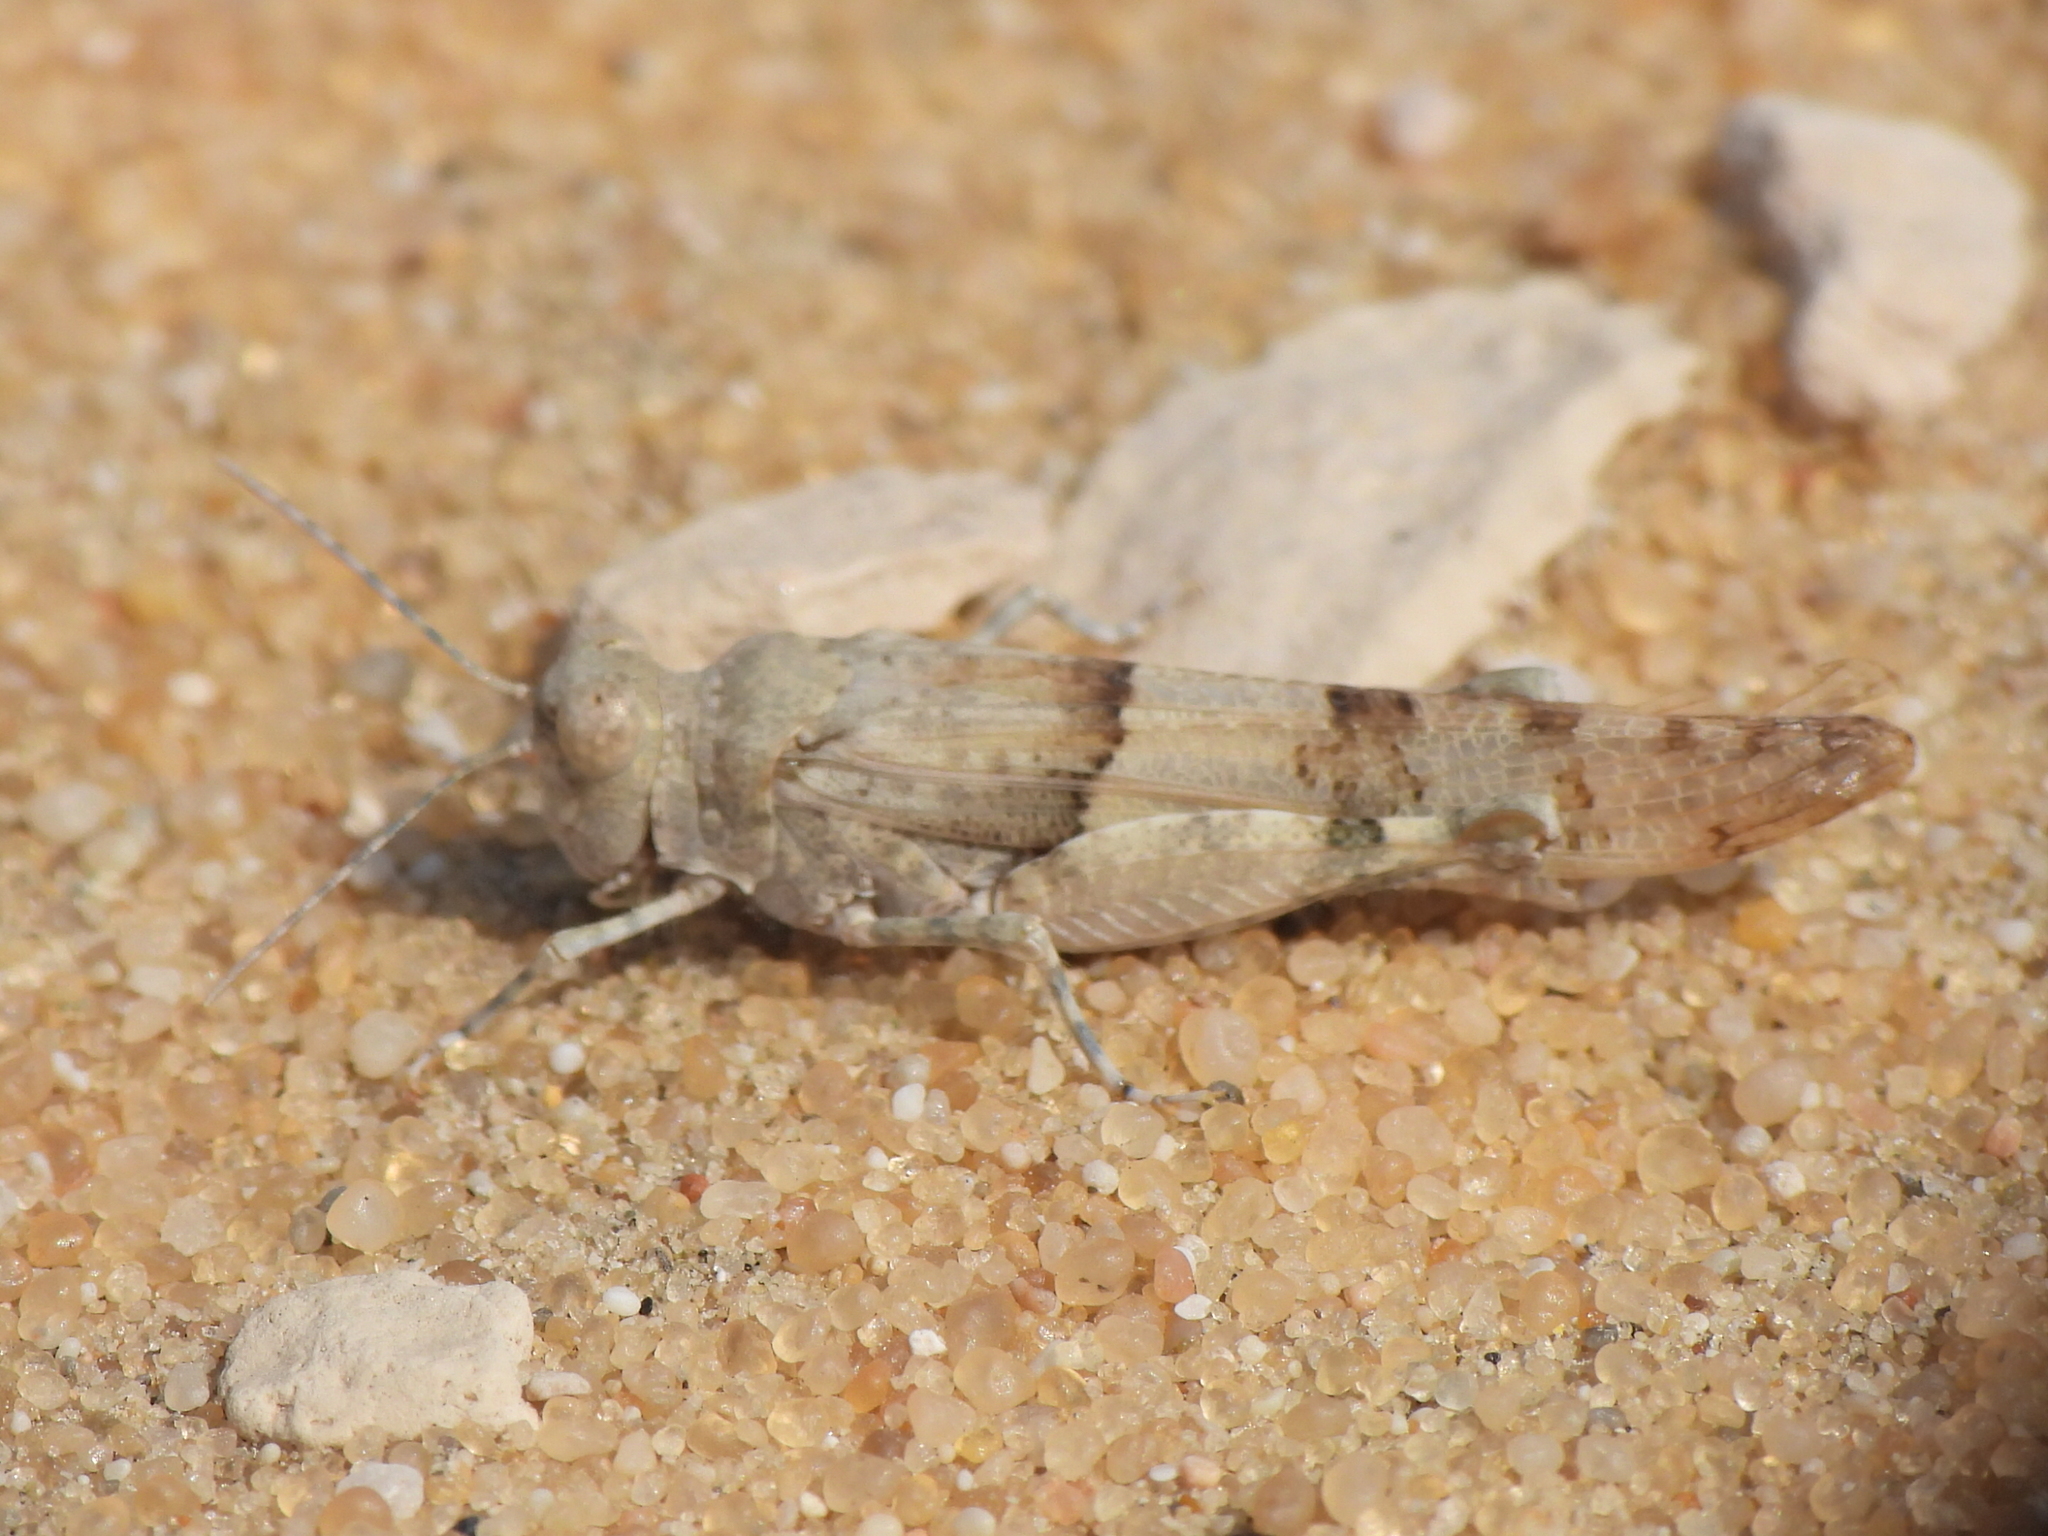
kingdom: Animalia
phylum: Arthropoda
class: Insecta
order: Orthoptera
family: Acrididae
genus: Sphingonotus
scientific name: Sphingonotus rubescens
